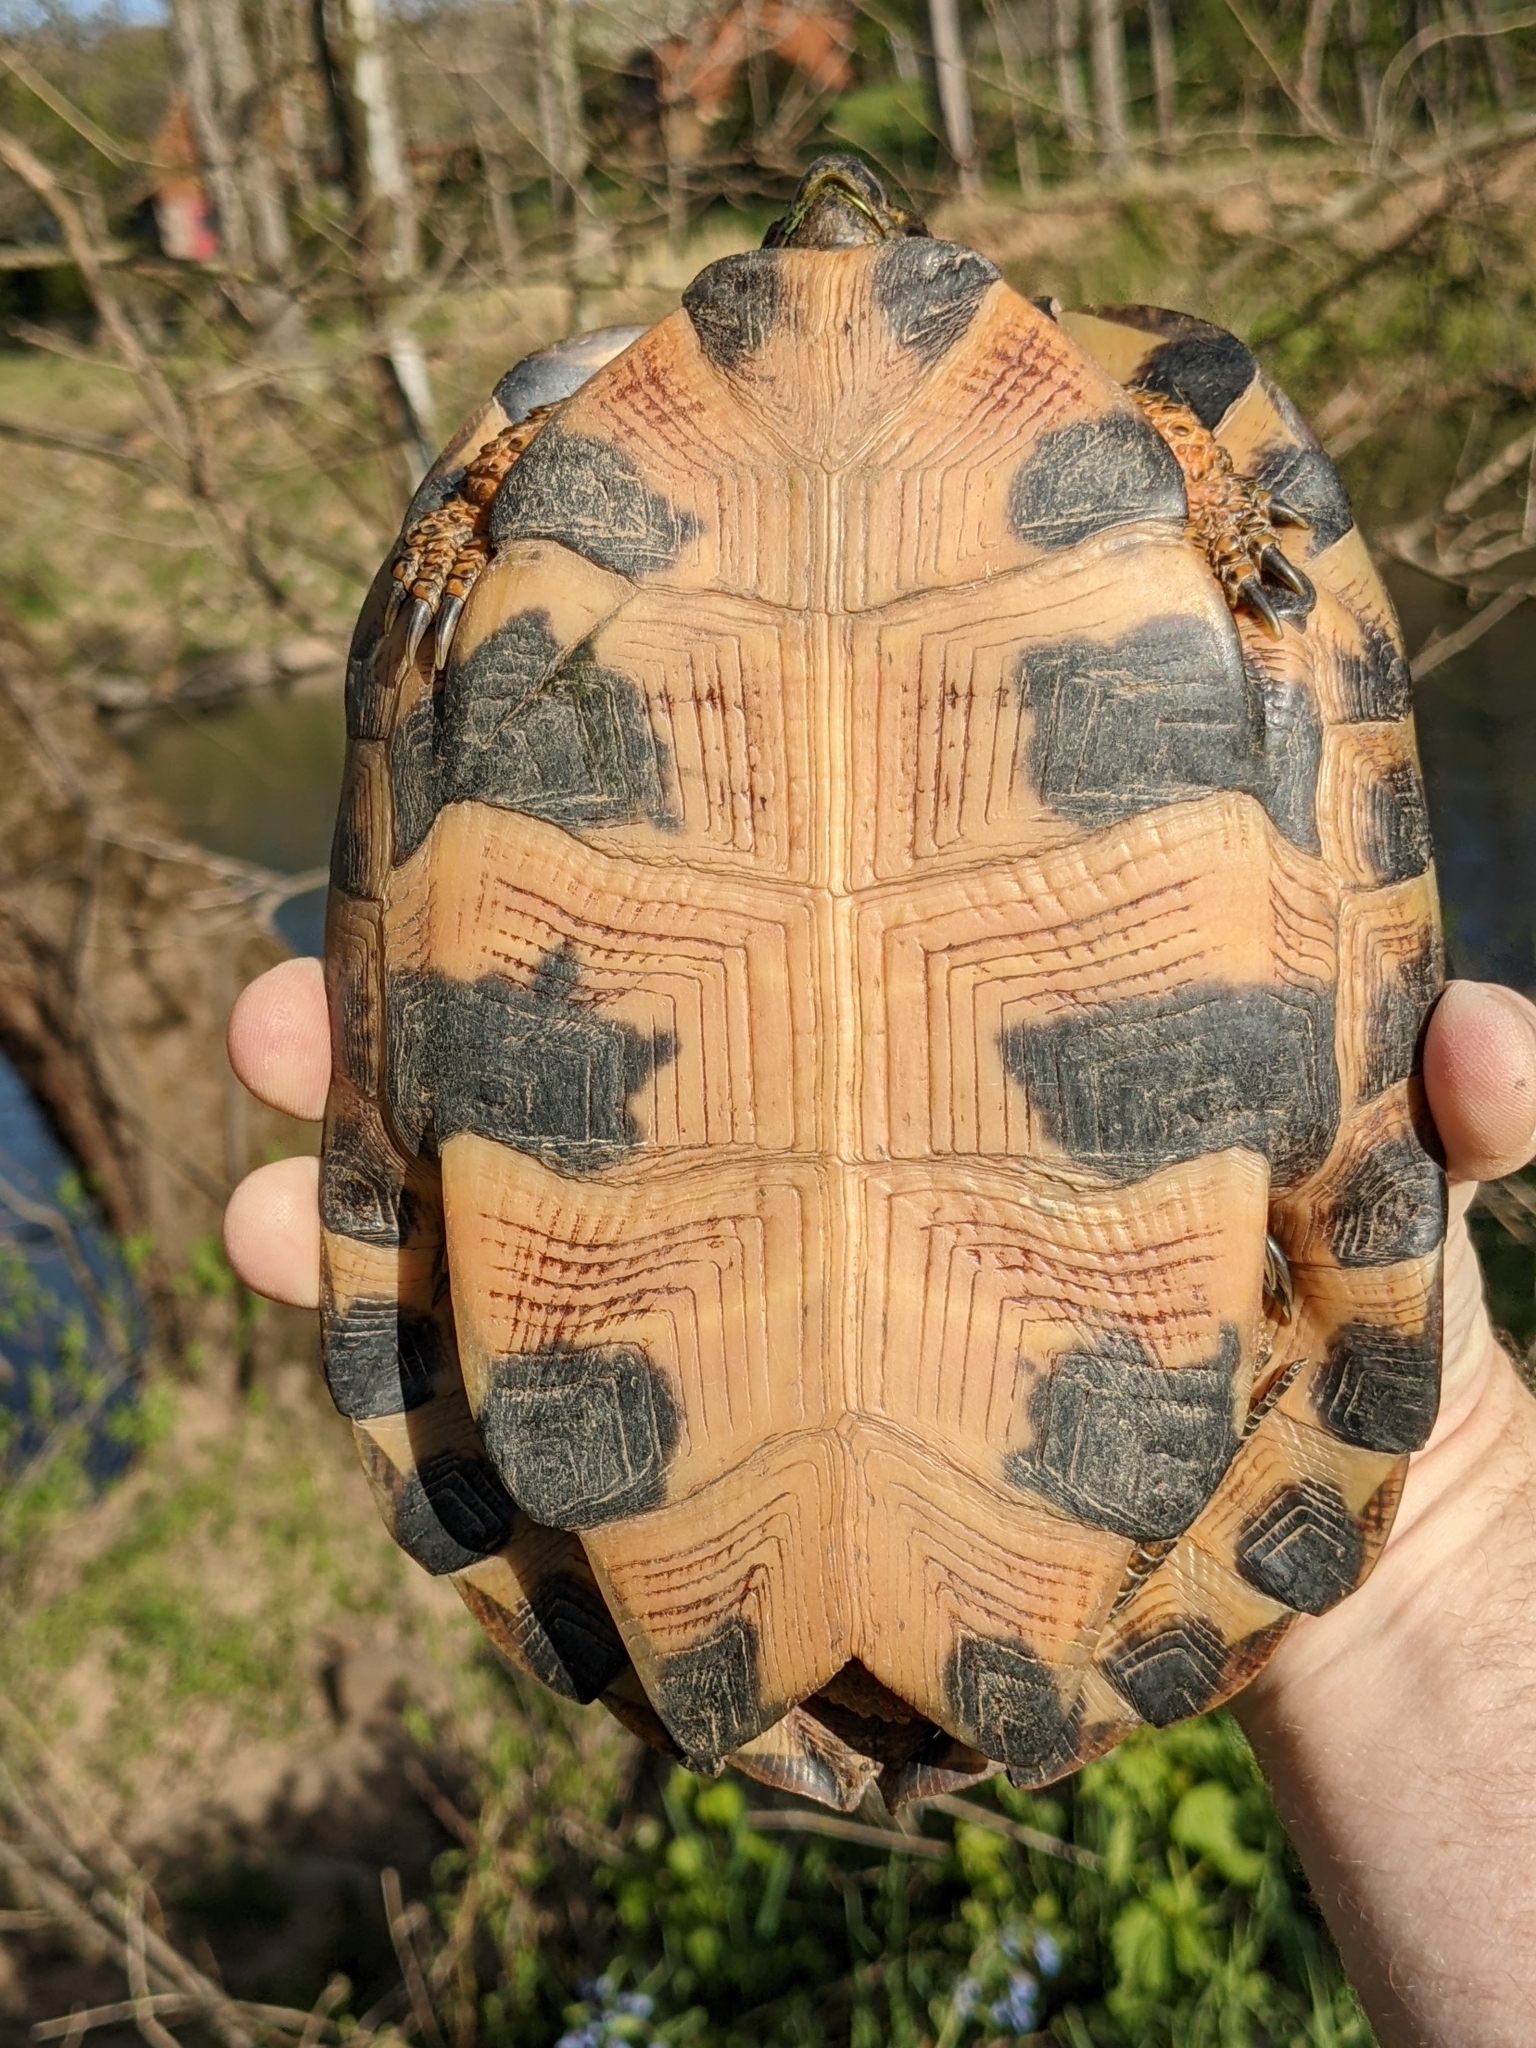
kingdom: Animalia
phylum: Chordata
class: Testudines
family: Emydidae
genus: Glyptemys
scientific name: Glyptemys insculpta
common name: Wood turtle
